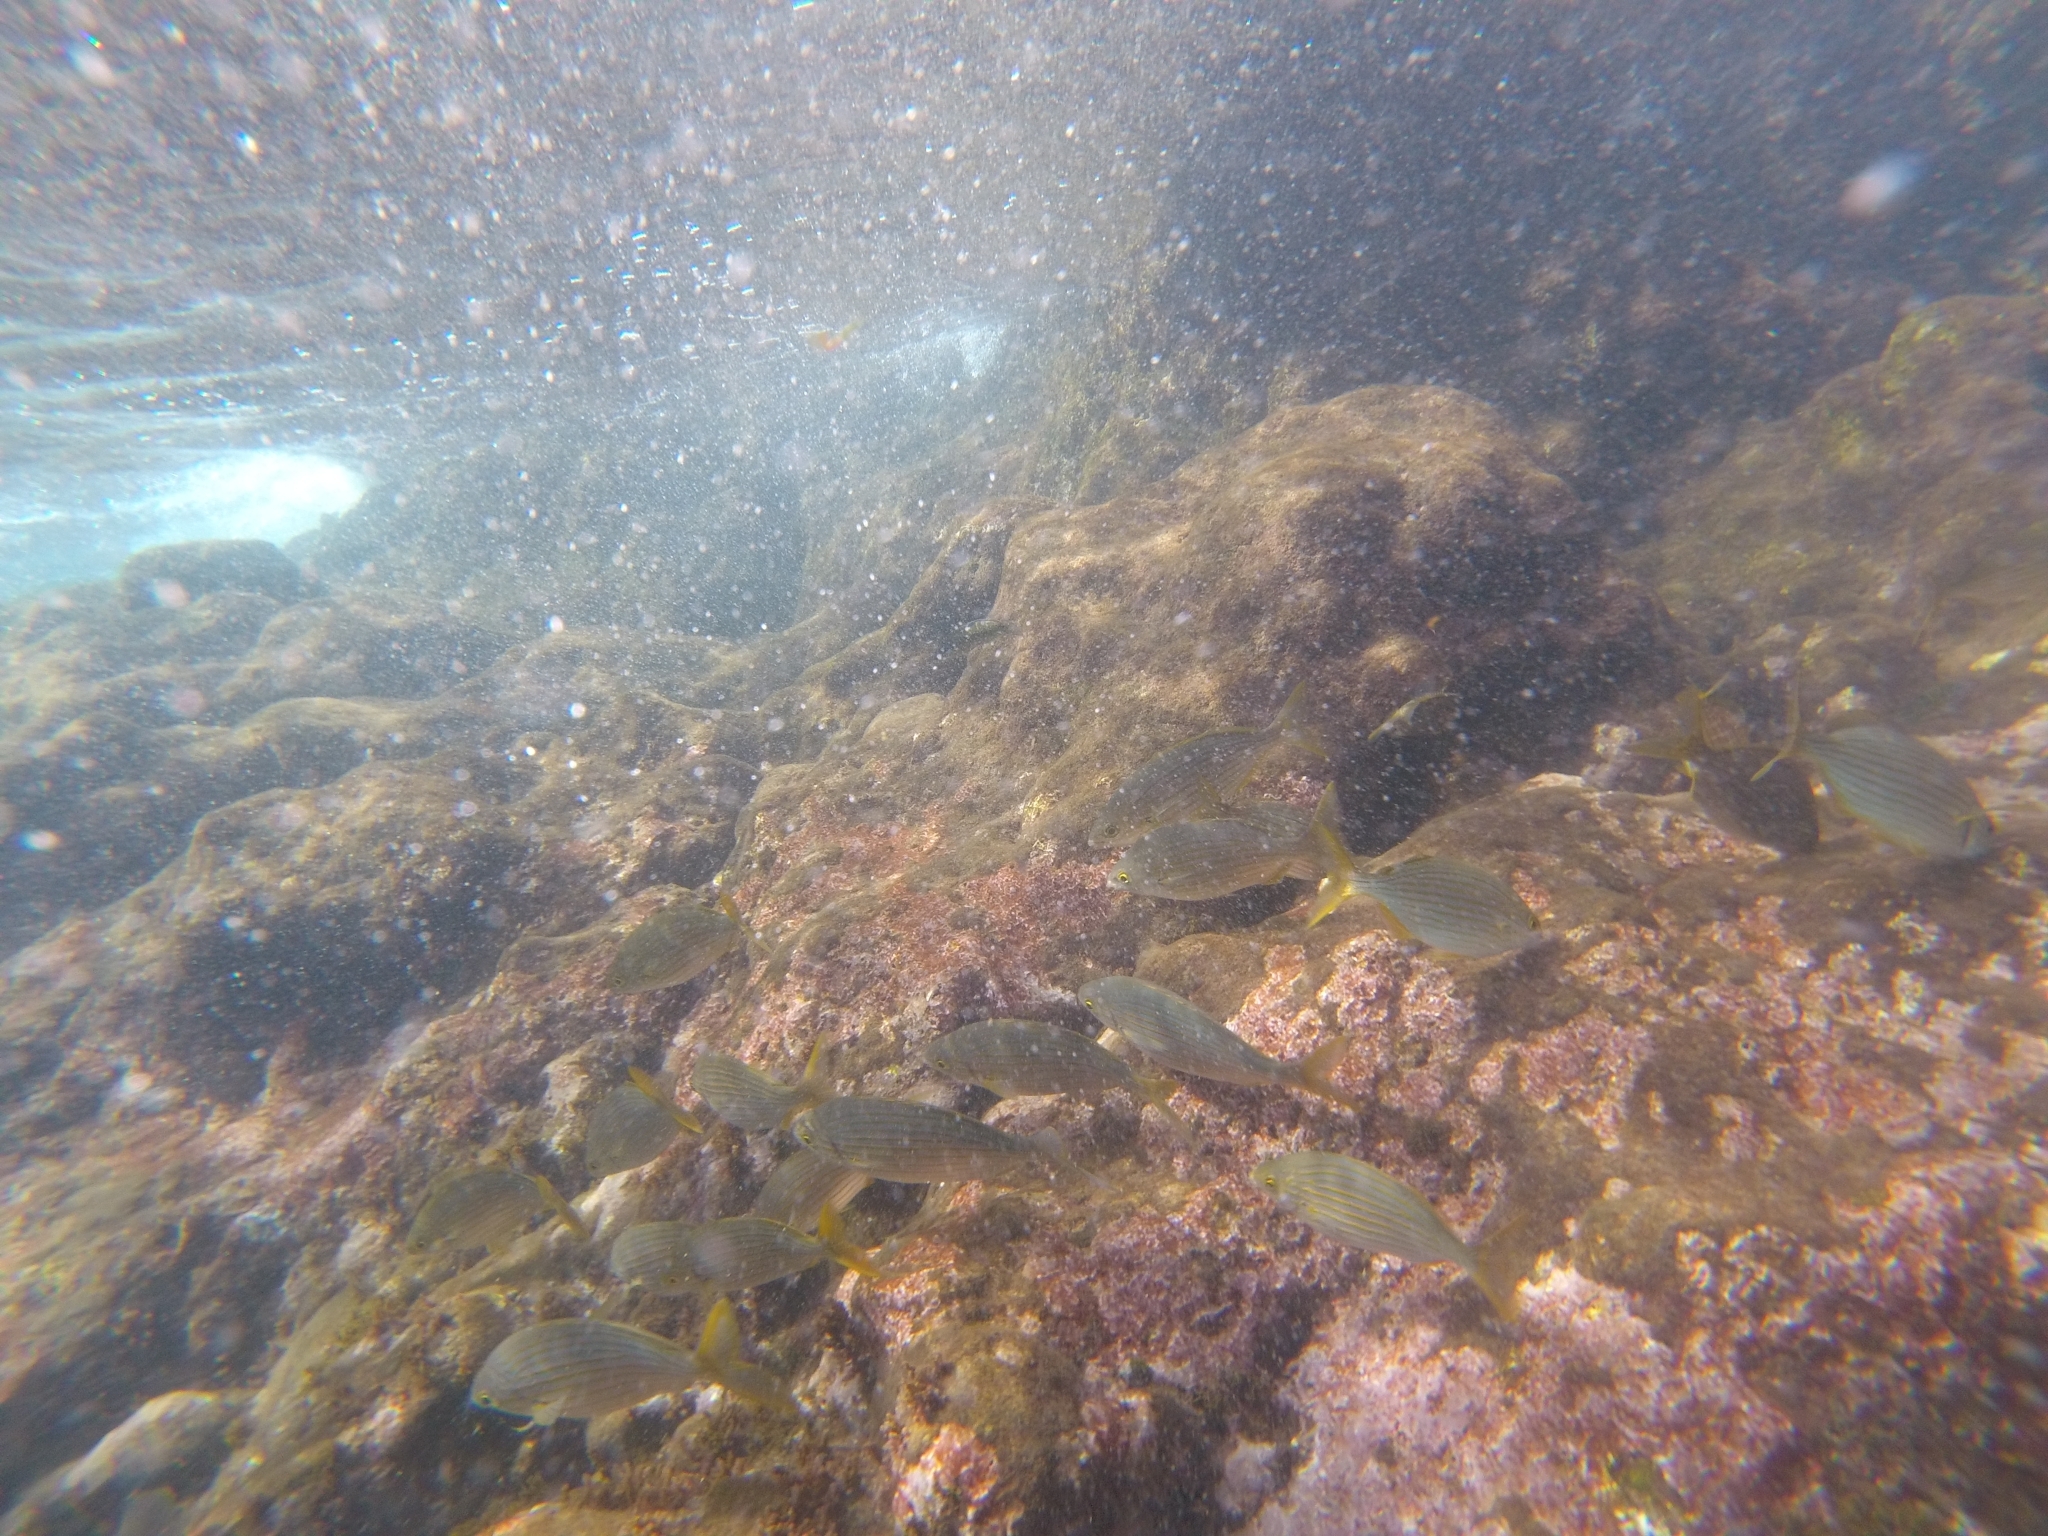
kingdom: Animalia
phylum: Chordata
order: Perciformes
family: Sparidae
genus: Sarpa
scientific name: Sarpa salpa
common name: Salema
